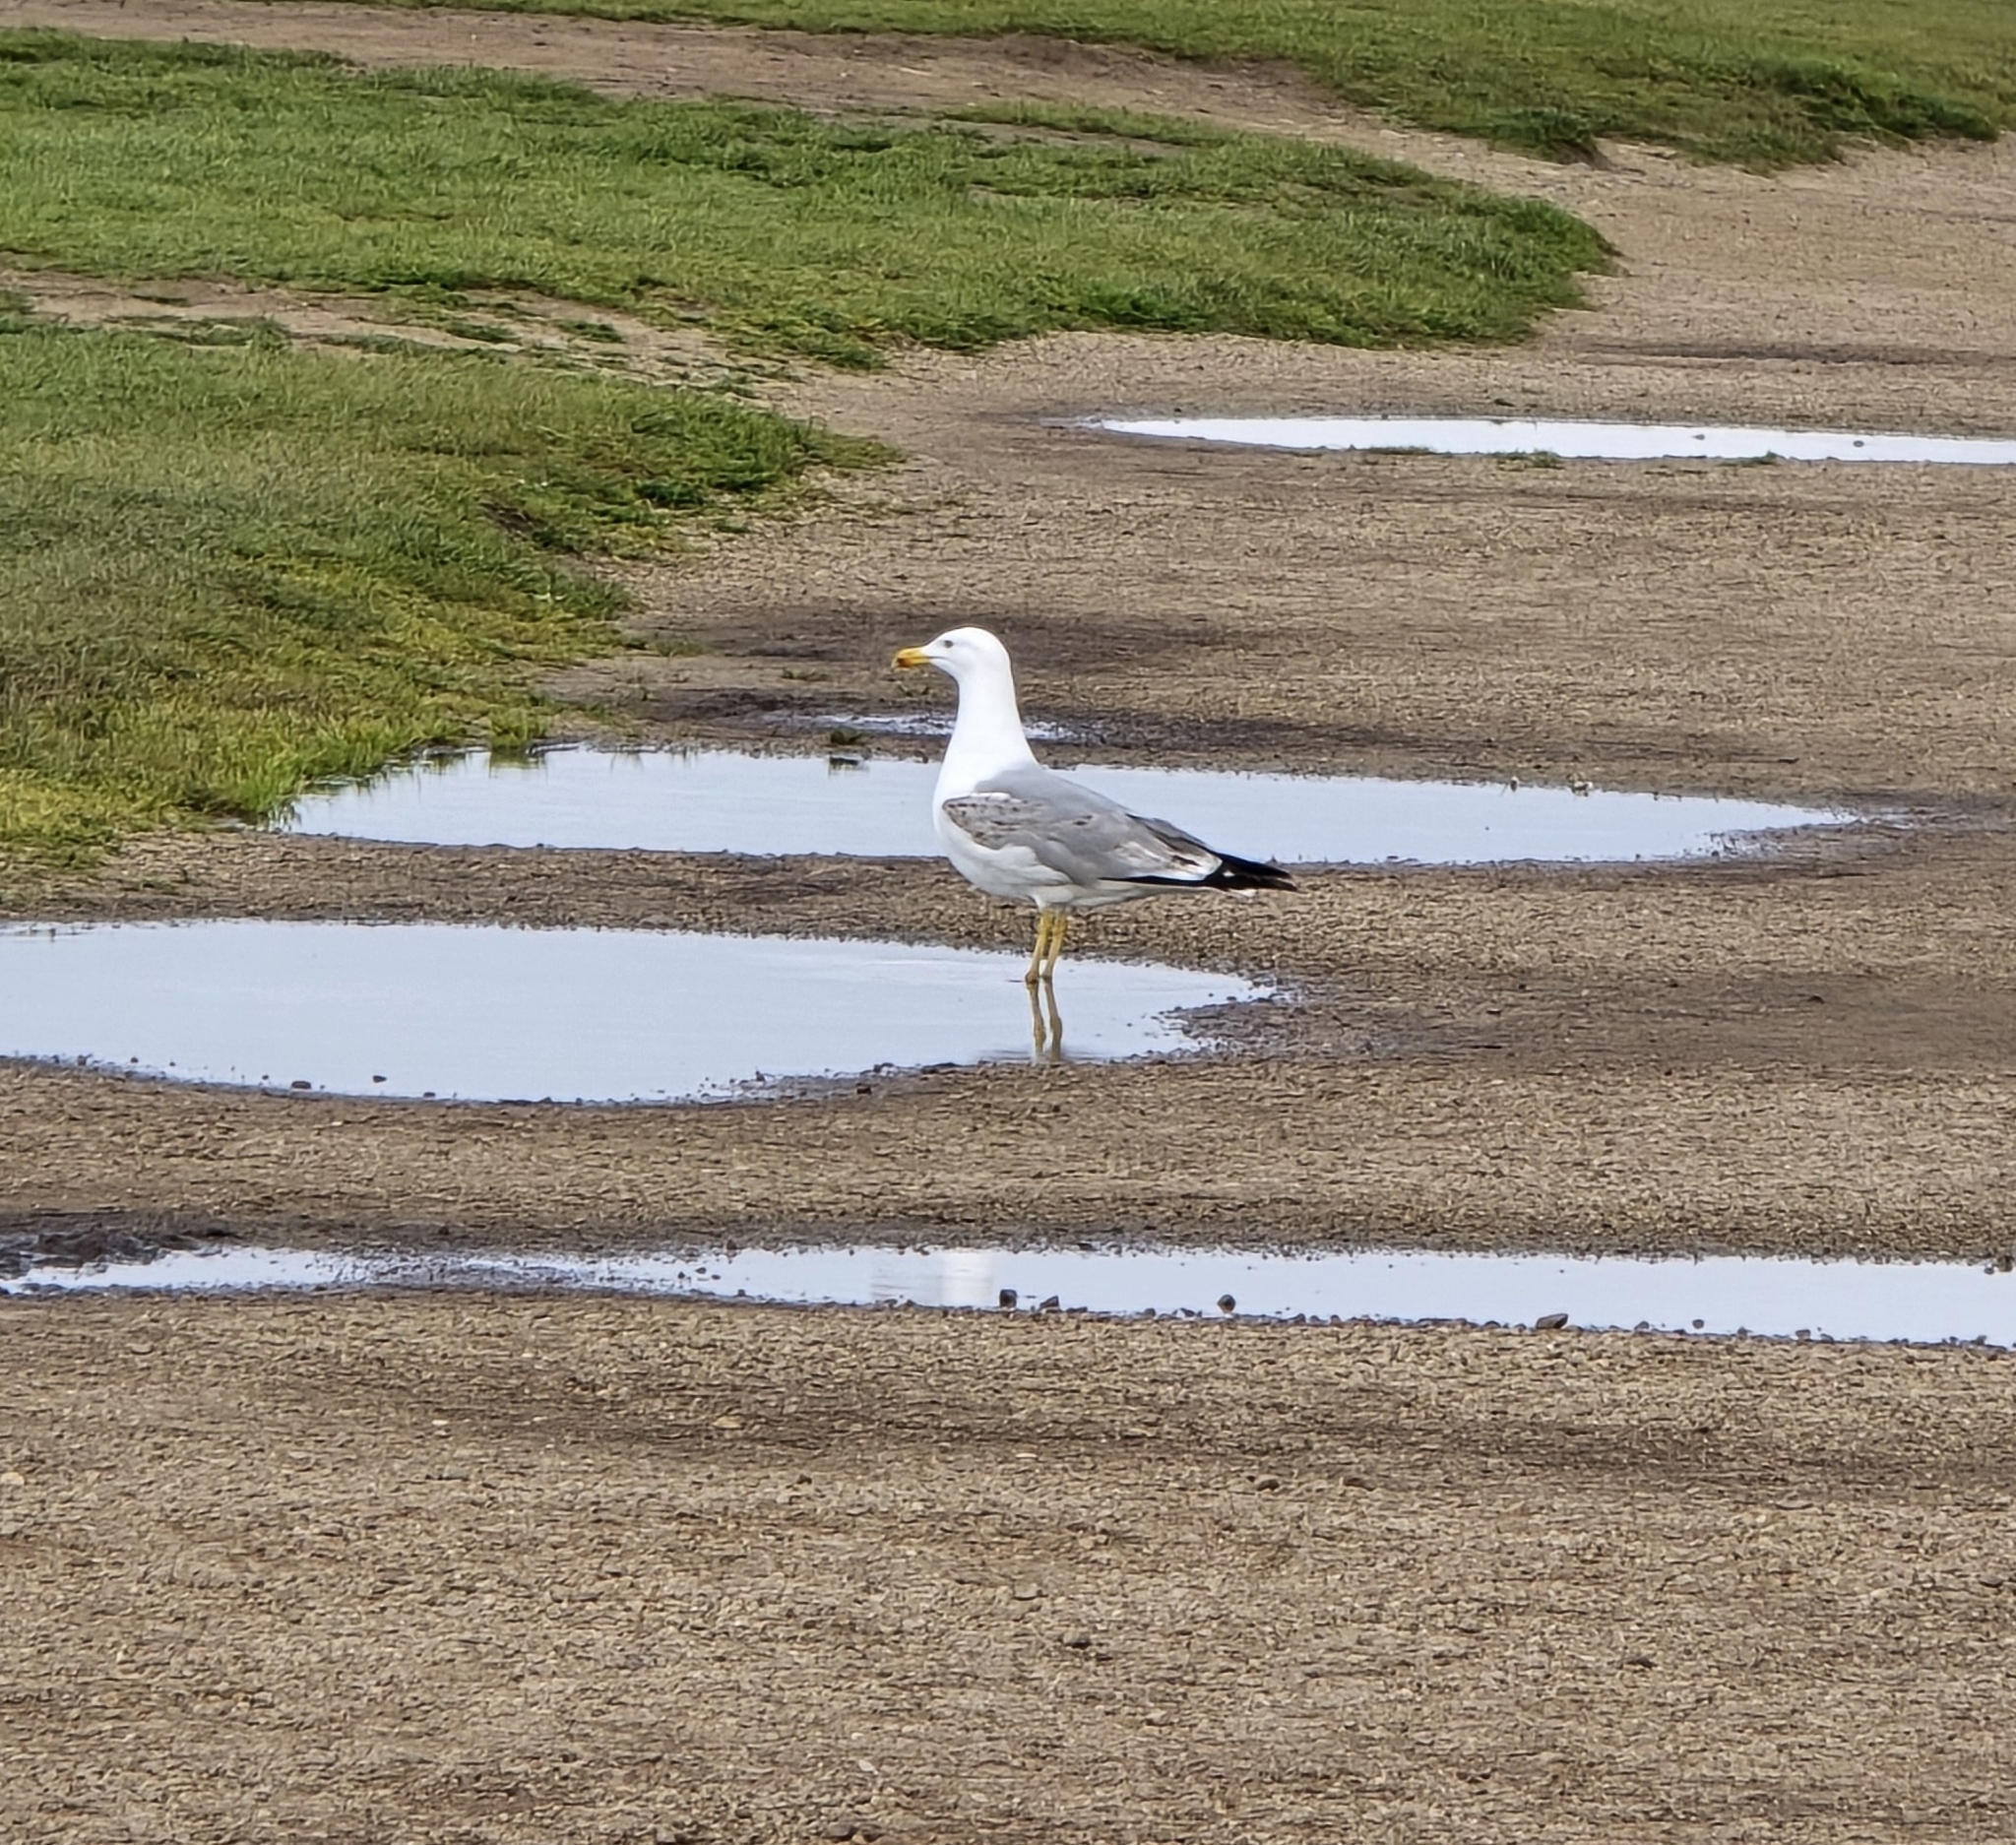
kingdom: Animalia
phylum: Chordata
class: Aves
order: Charadriiformes
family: Laridae
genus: Larus
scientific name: Larus michahellis
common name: Yellow-legged gull
